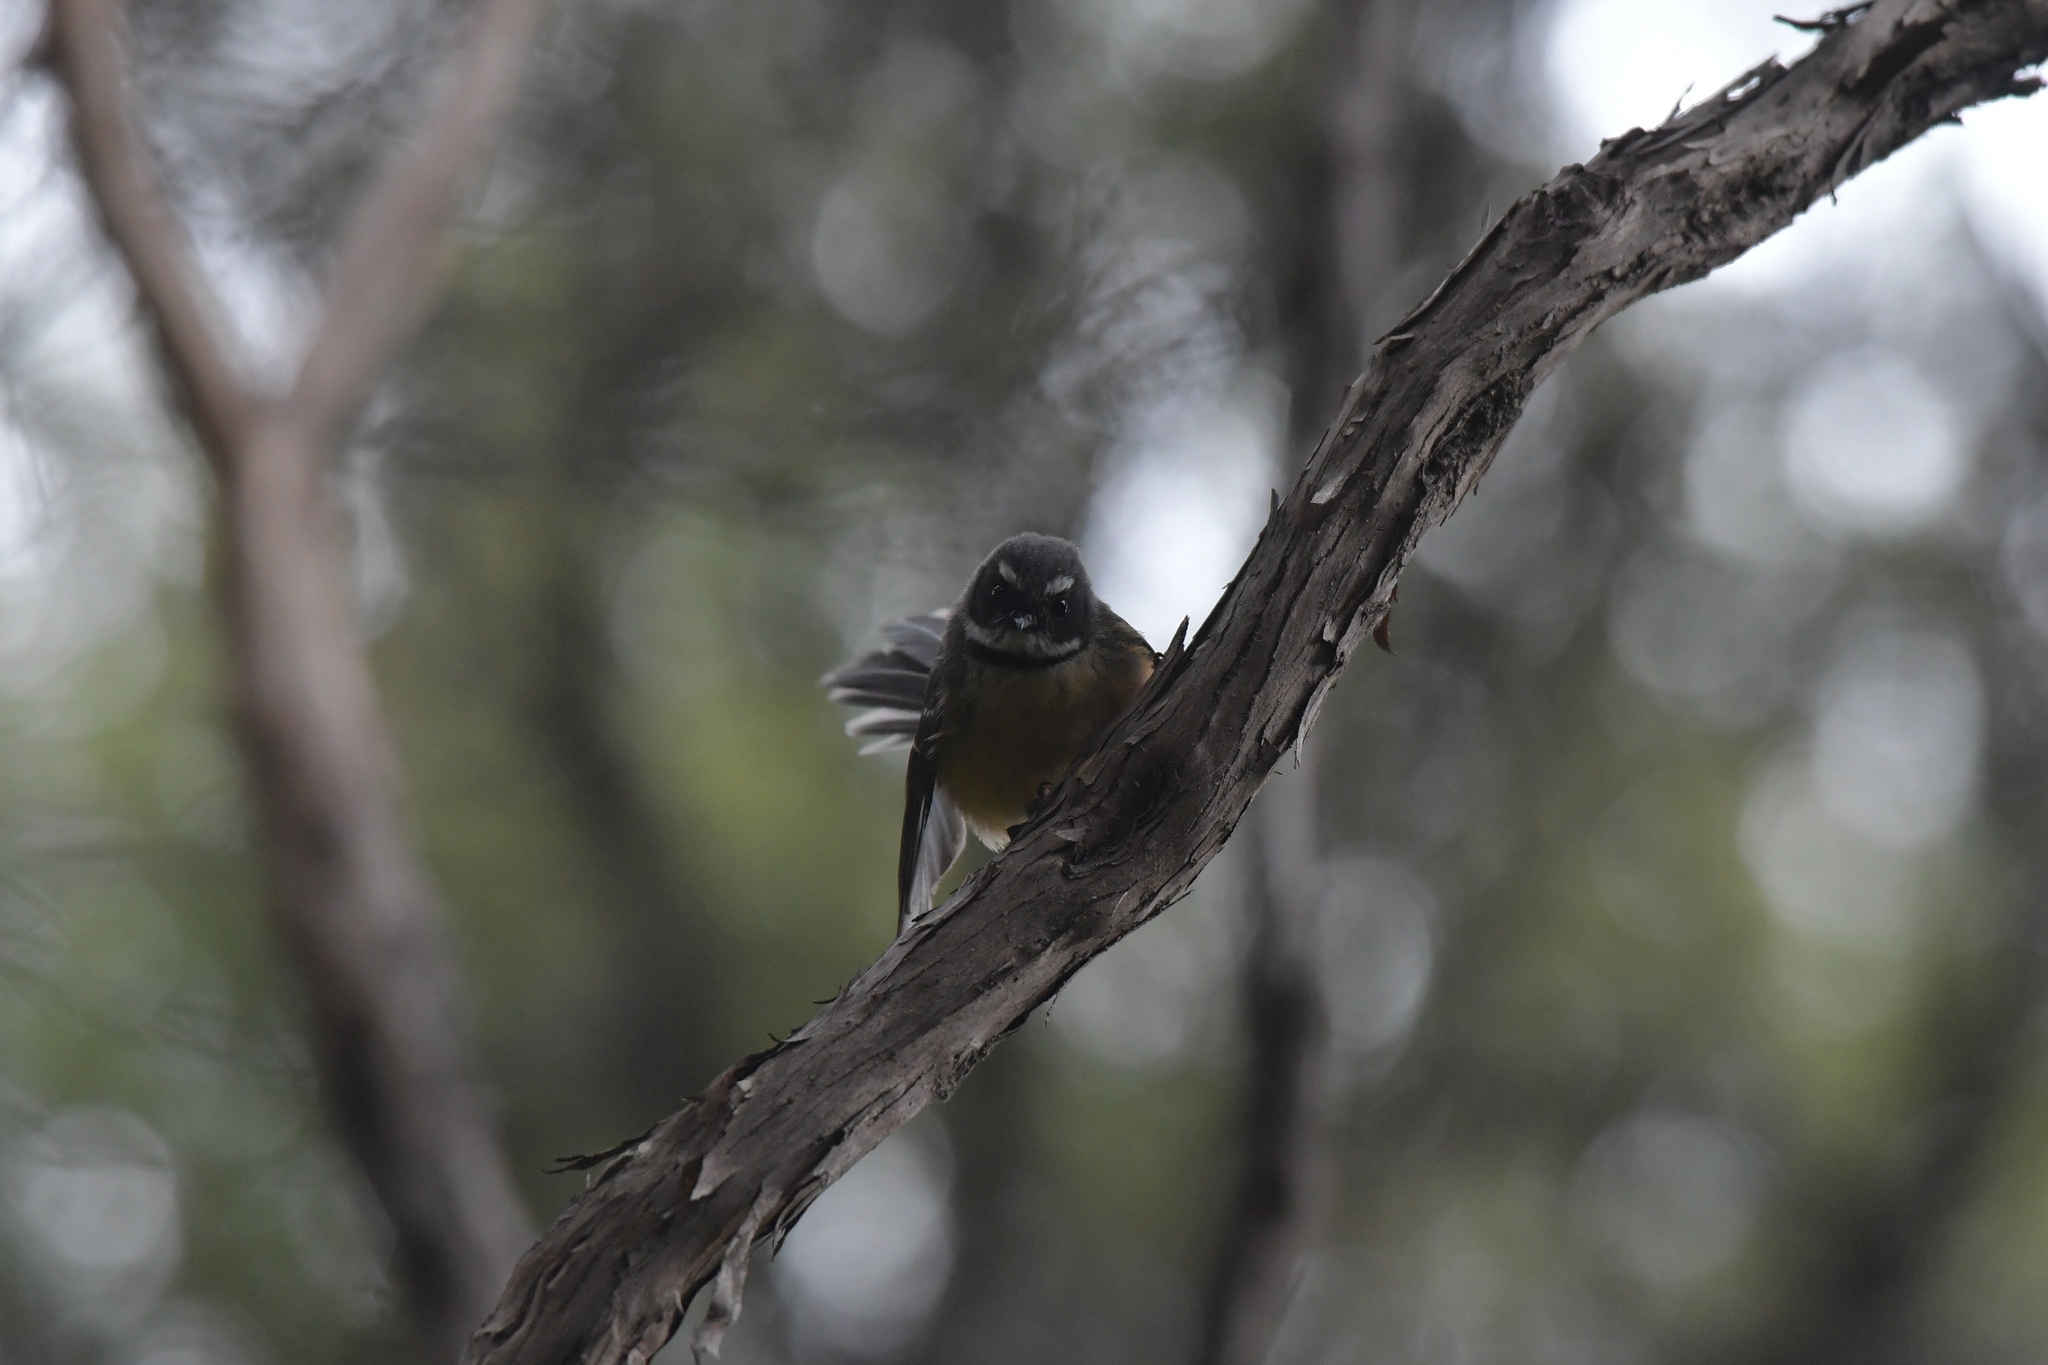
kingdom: Animalia
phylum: Chordata
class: Aves
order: Passeriformes
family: Rhipiduridae
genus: Rhipidura
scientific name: Rhipidura fuliginosa
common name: New zealand fantail
